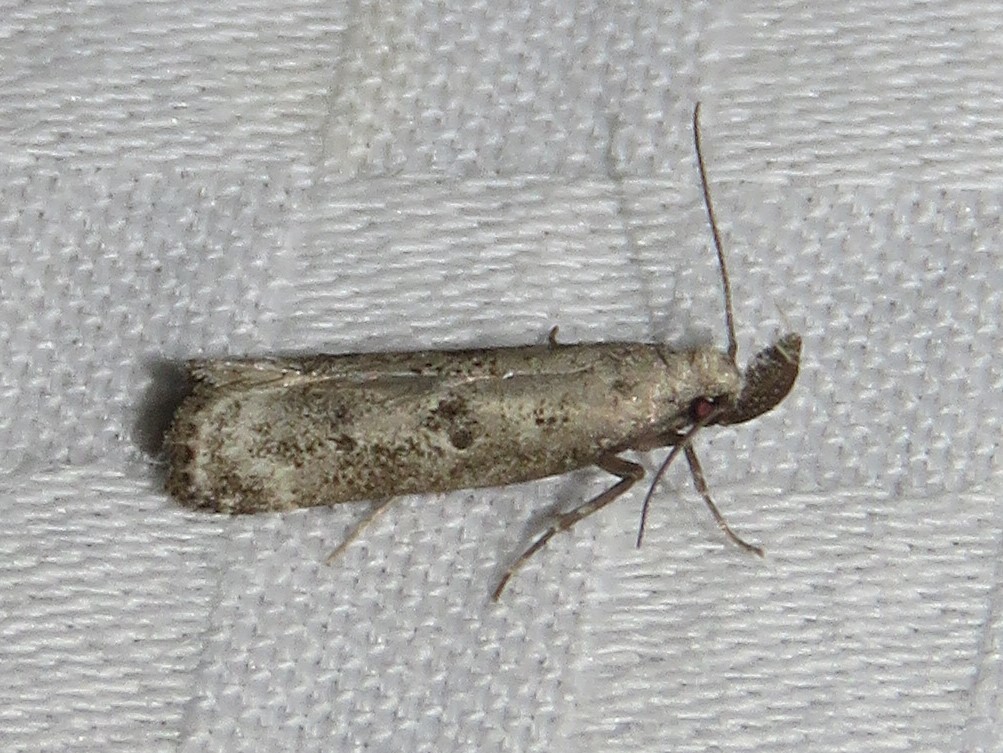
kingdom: Animalia
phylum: Arthropoda
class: Insecta
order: Lepidoptera
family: Gelechiidae
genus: Dichomeris
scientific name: Dichomeris inversella
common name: Inverse dichomeris moth
